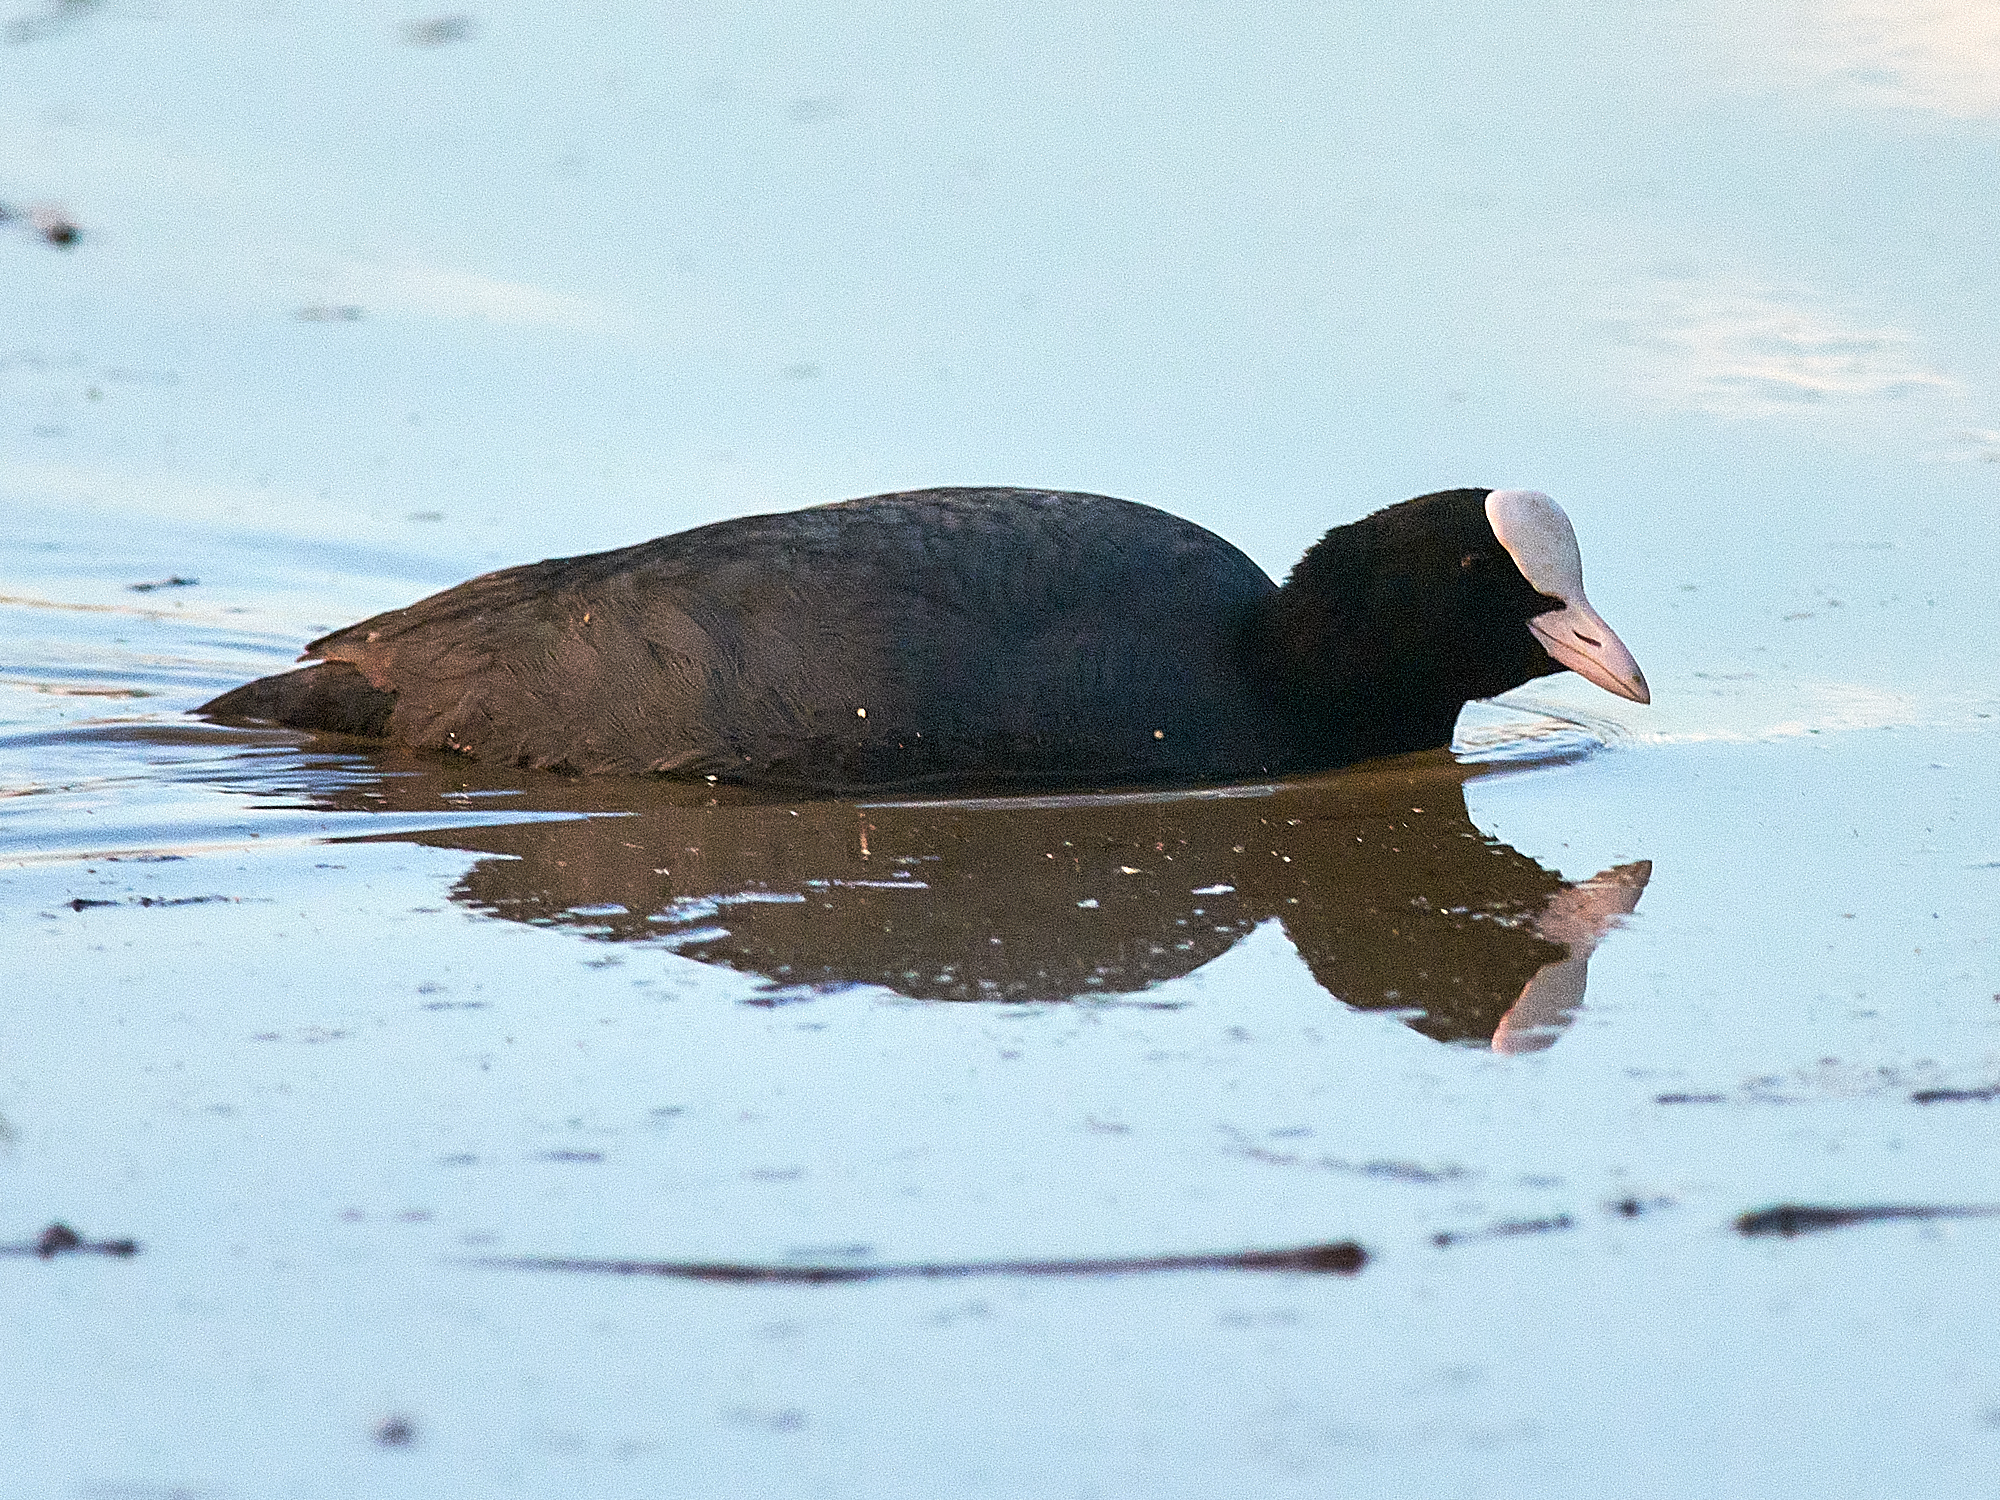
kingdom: Animalia
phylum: Chordata
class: Aves
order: Gruiformes
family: Rallidae
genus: Fulica
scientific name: Fulica atra
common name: Eurasian coot
